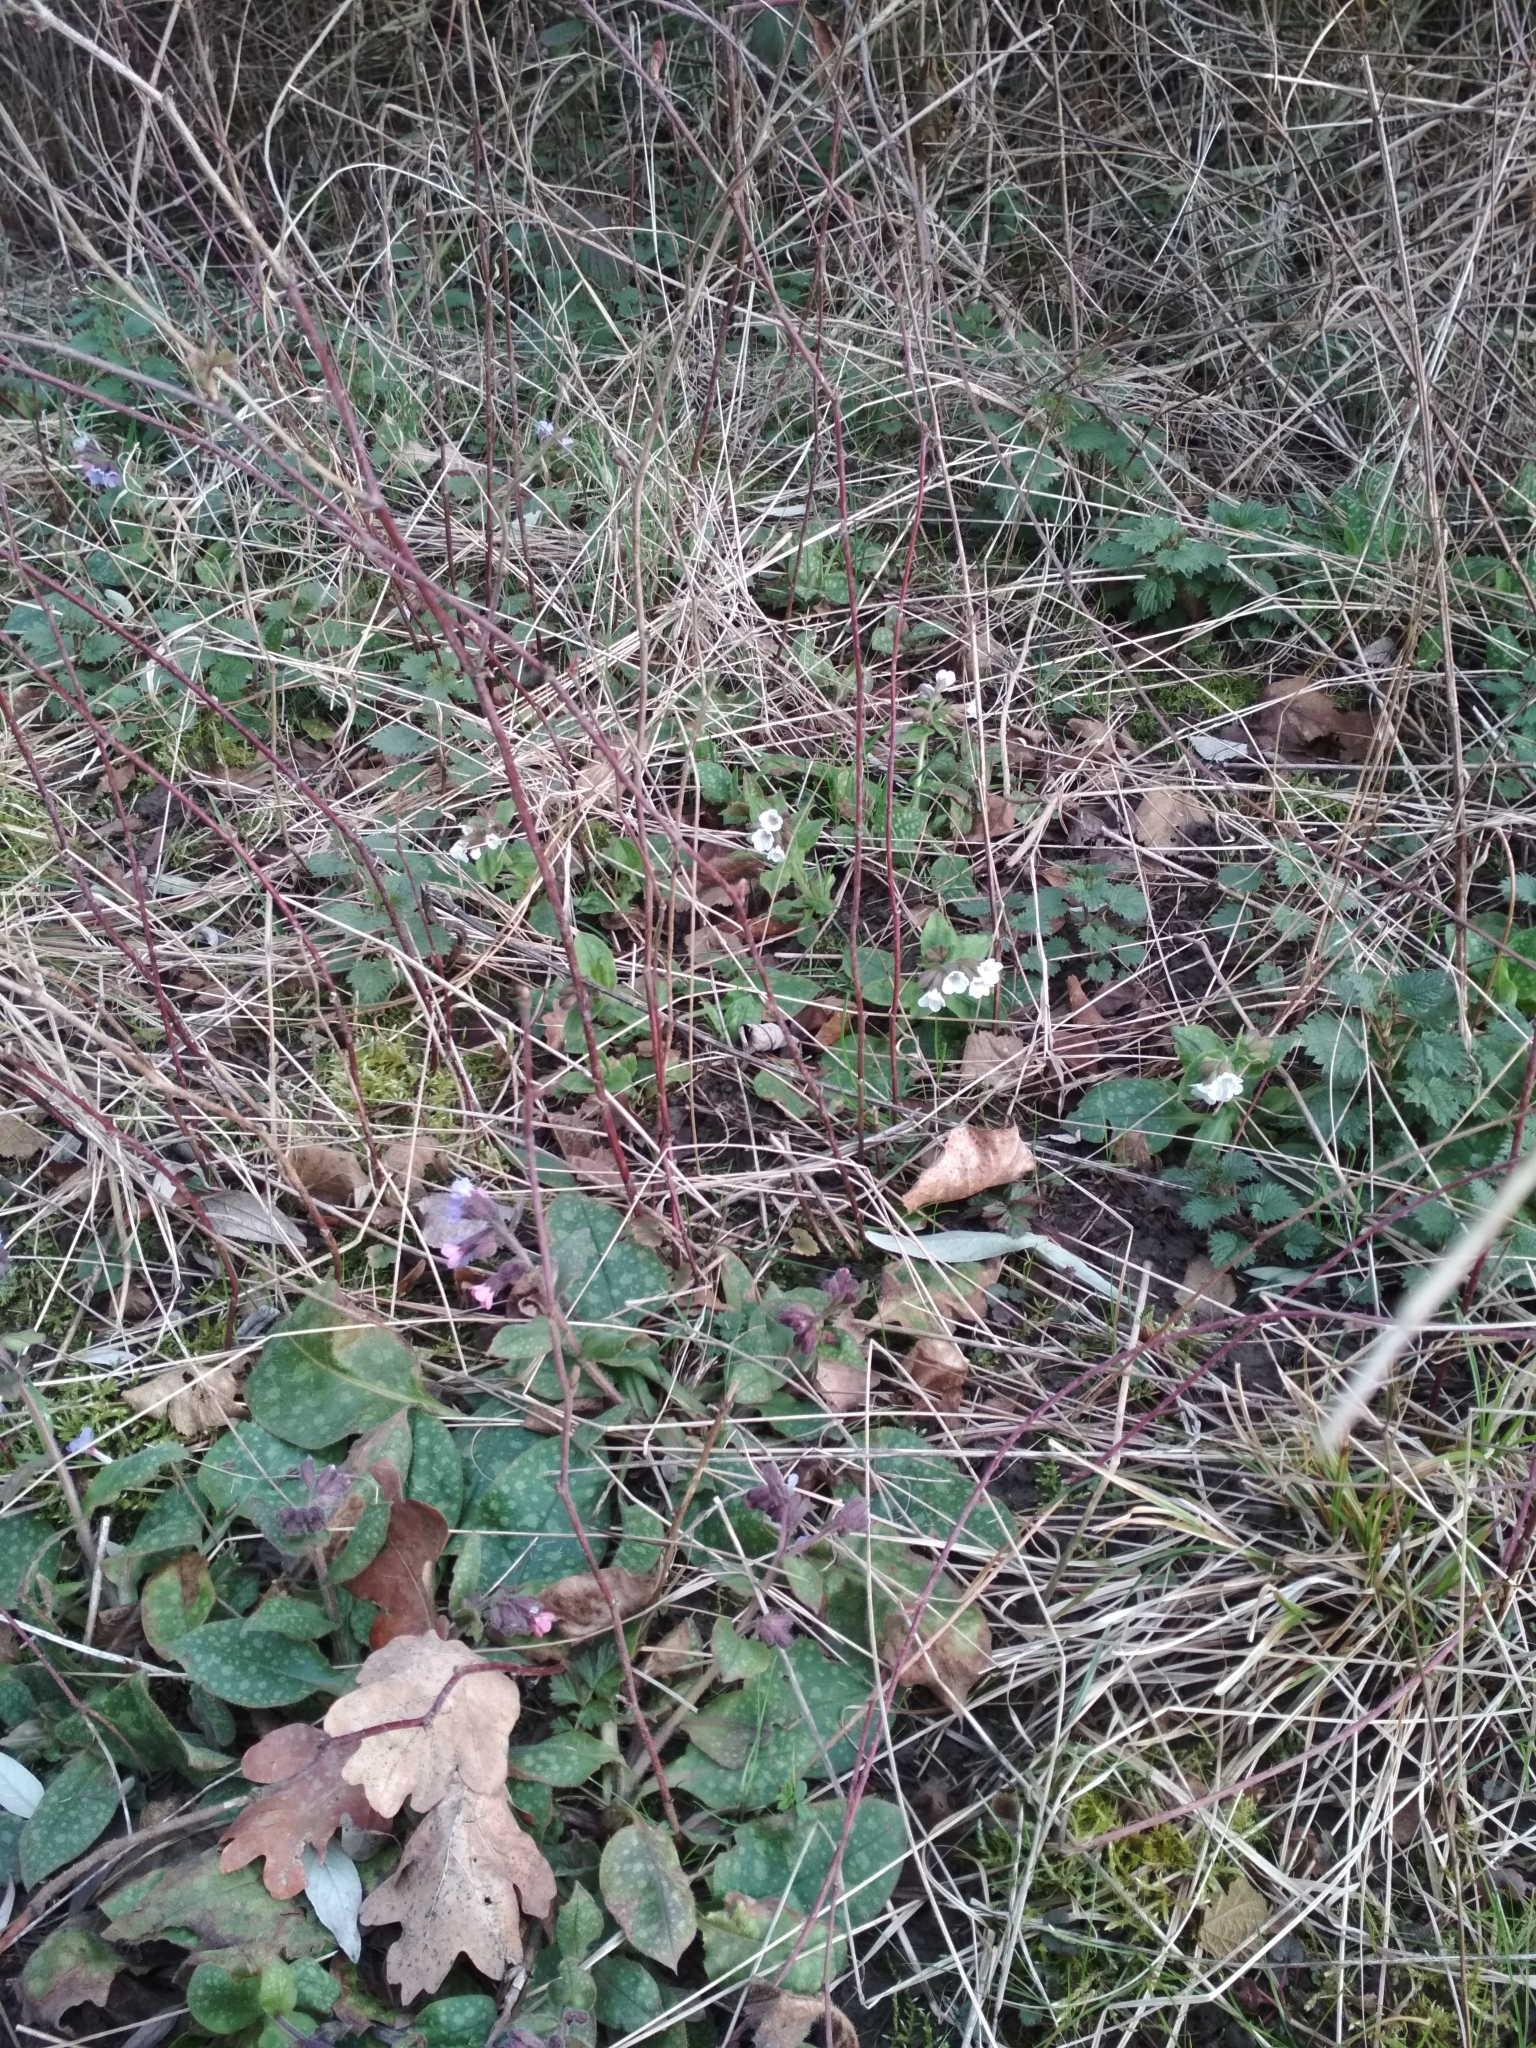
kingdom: Plantae
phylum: Tracheophyta
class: Magnoliopsida
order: Boraginales
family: Boraginaceae
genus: Pulmonaria
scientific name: Pulmonaria officinalis
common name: Lungwort
